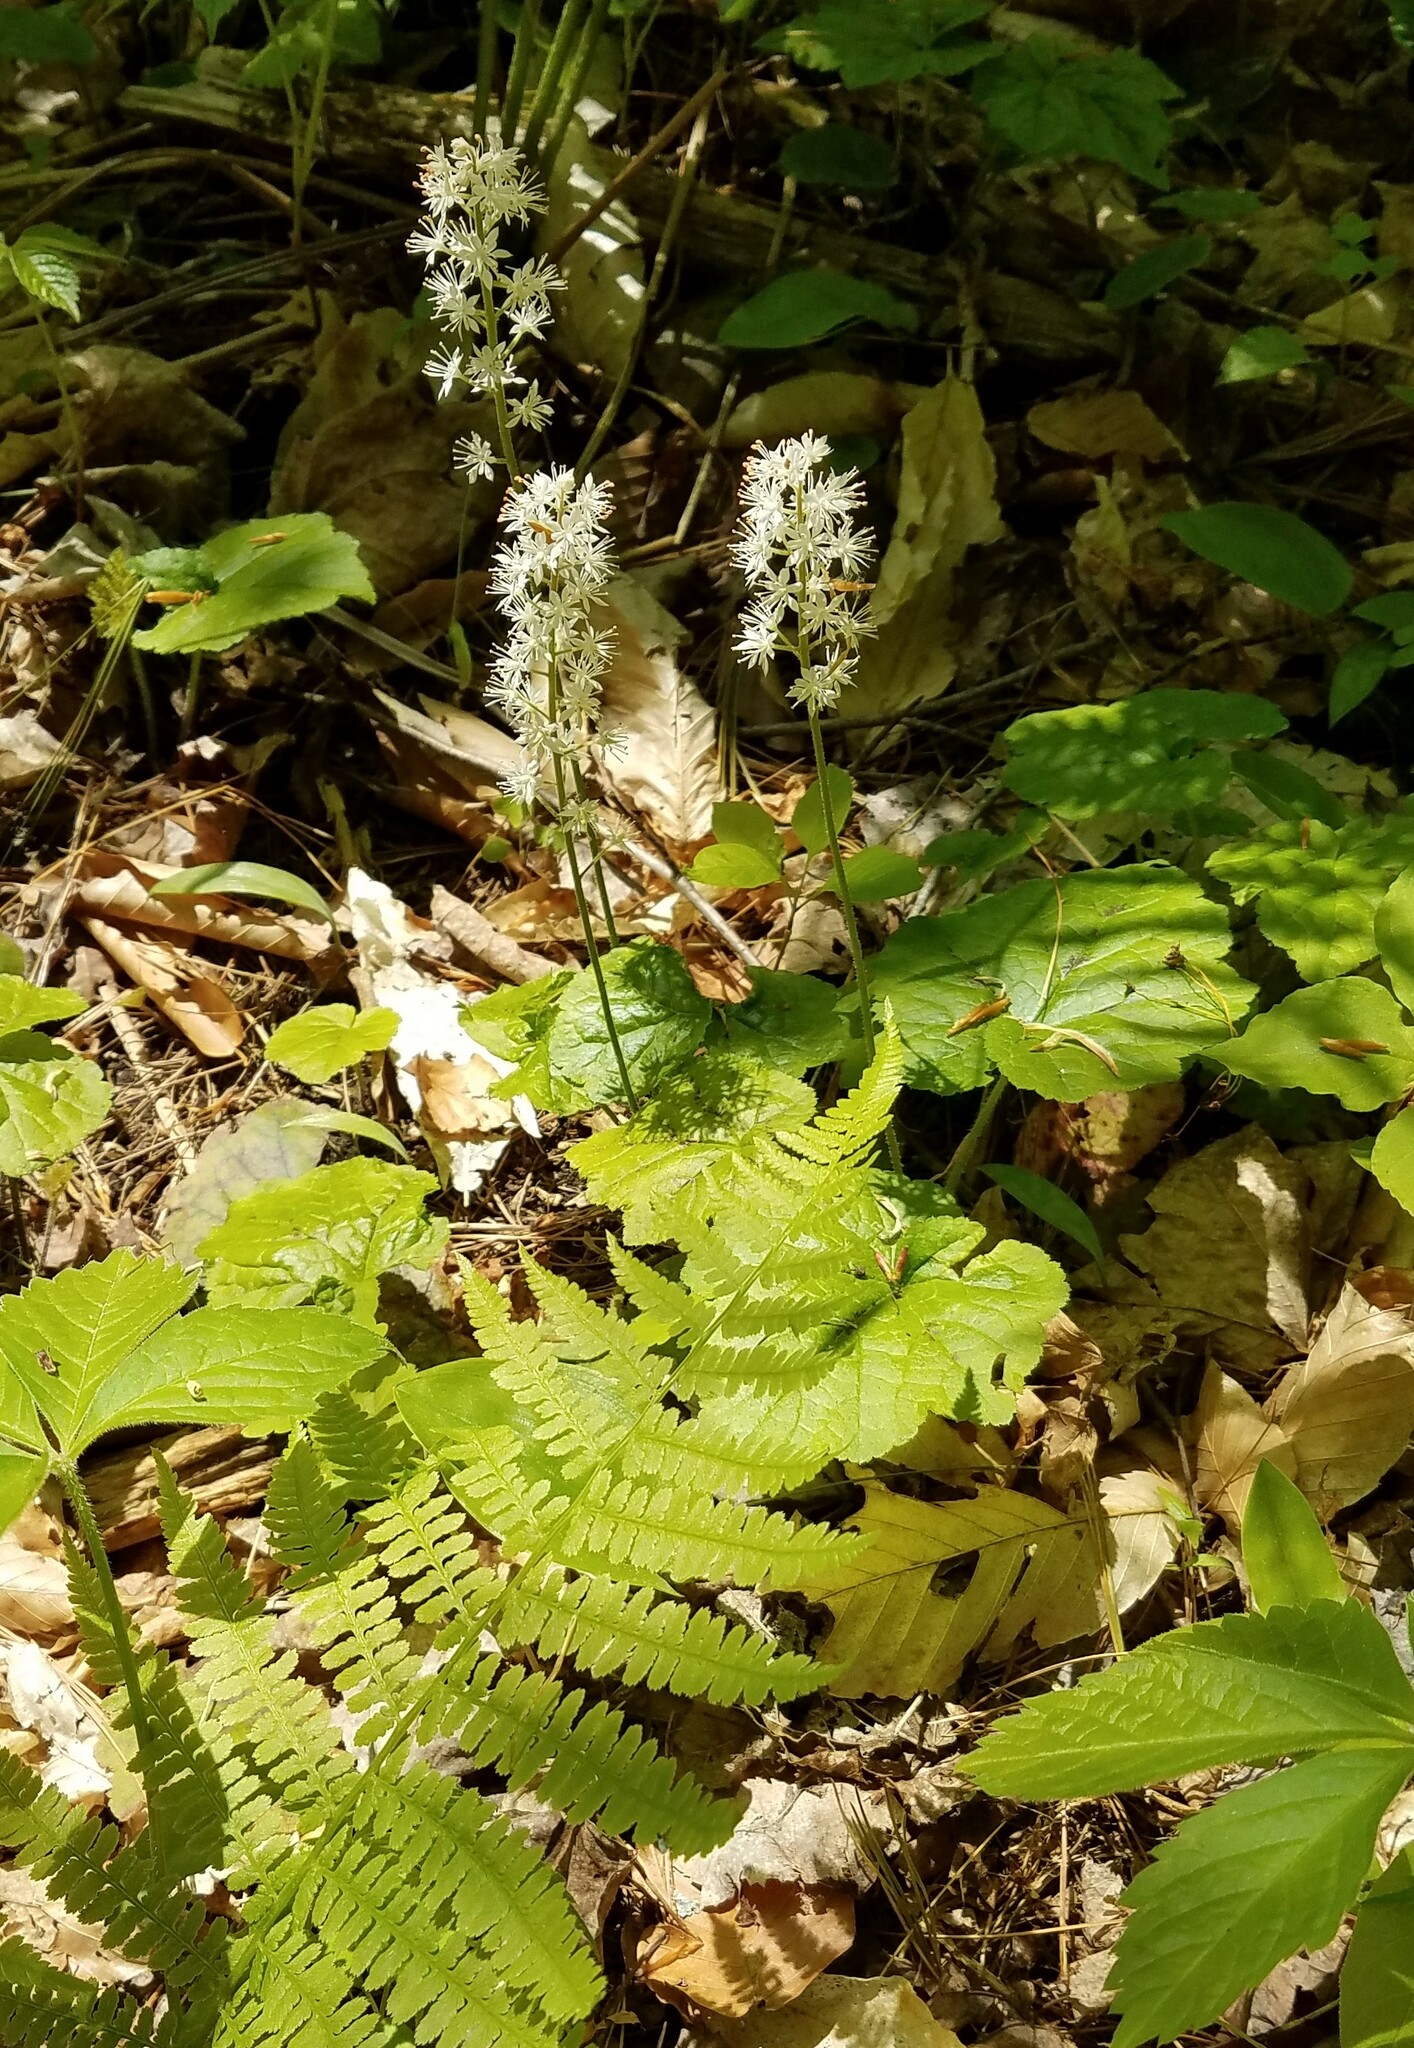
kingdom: Plantae
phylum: Tracheophyta
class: Magnoliopsida
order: Saxifragales
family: Saxifragaceae
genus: Tiarella
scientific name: Tiarella stolonifera
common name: Stoloniferous foamflower
